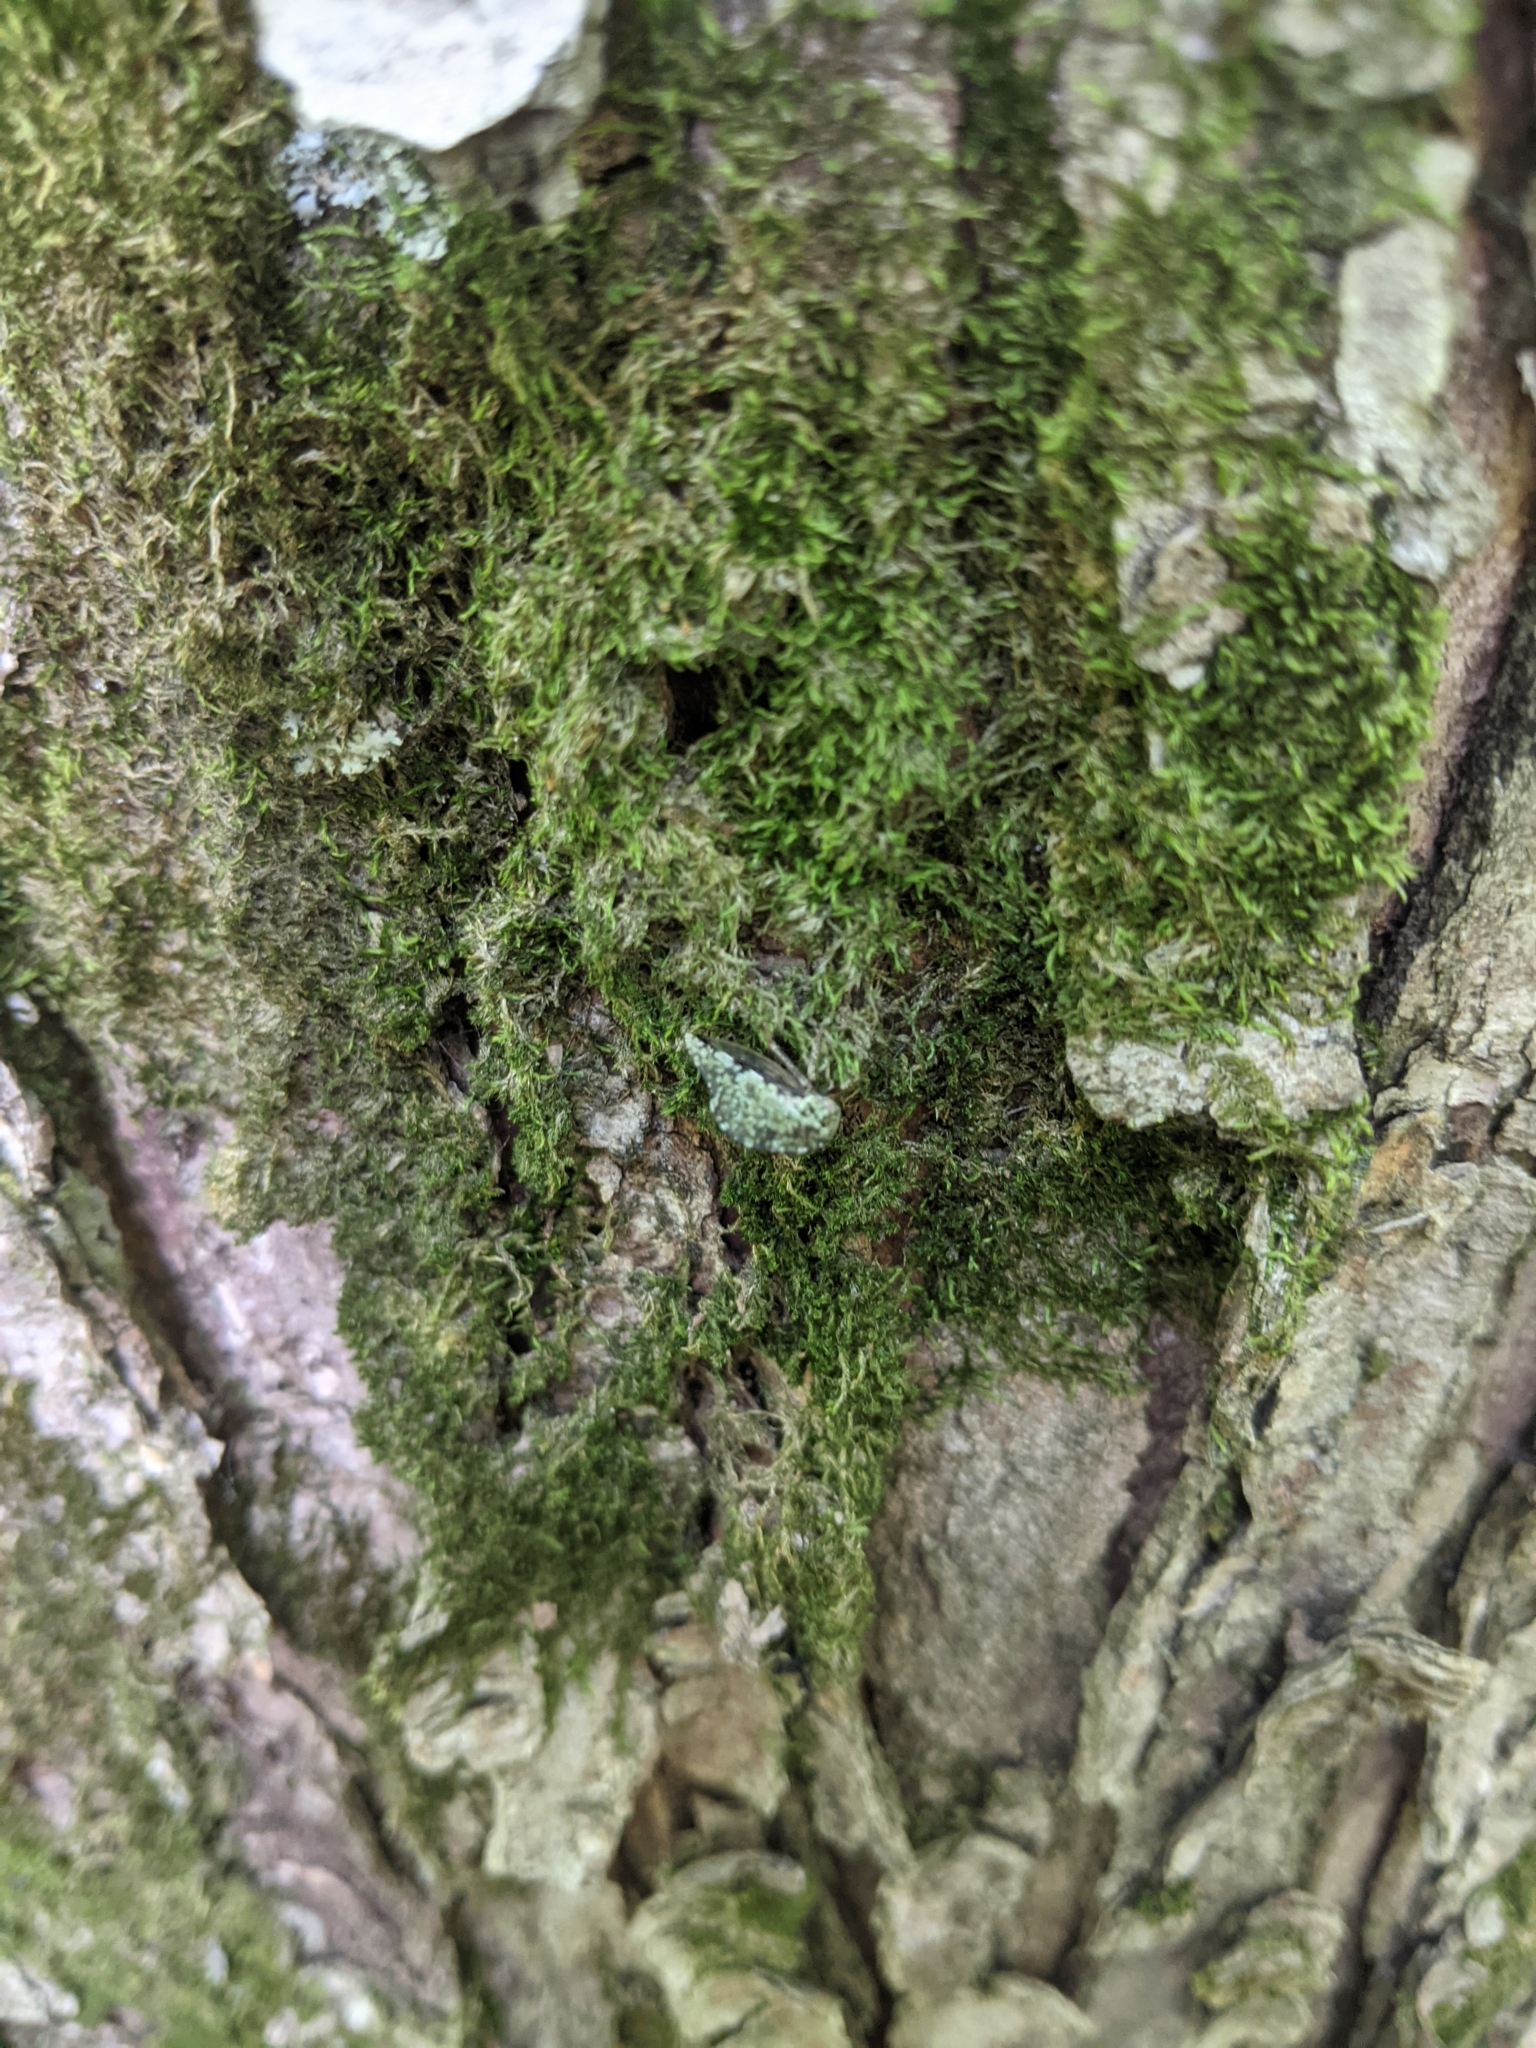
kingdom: Animalia
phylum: Arthropoda
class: Insecta
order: Hemiptera
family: Membracidae
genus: Telamona
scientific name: Telamona westcotti
